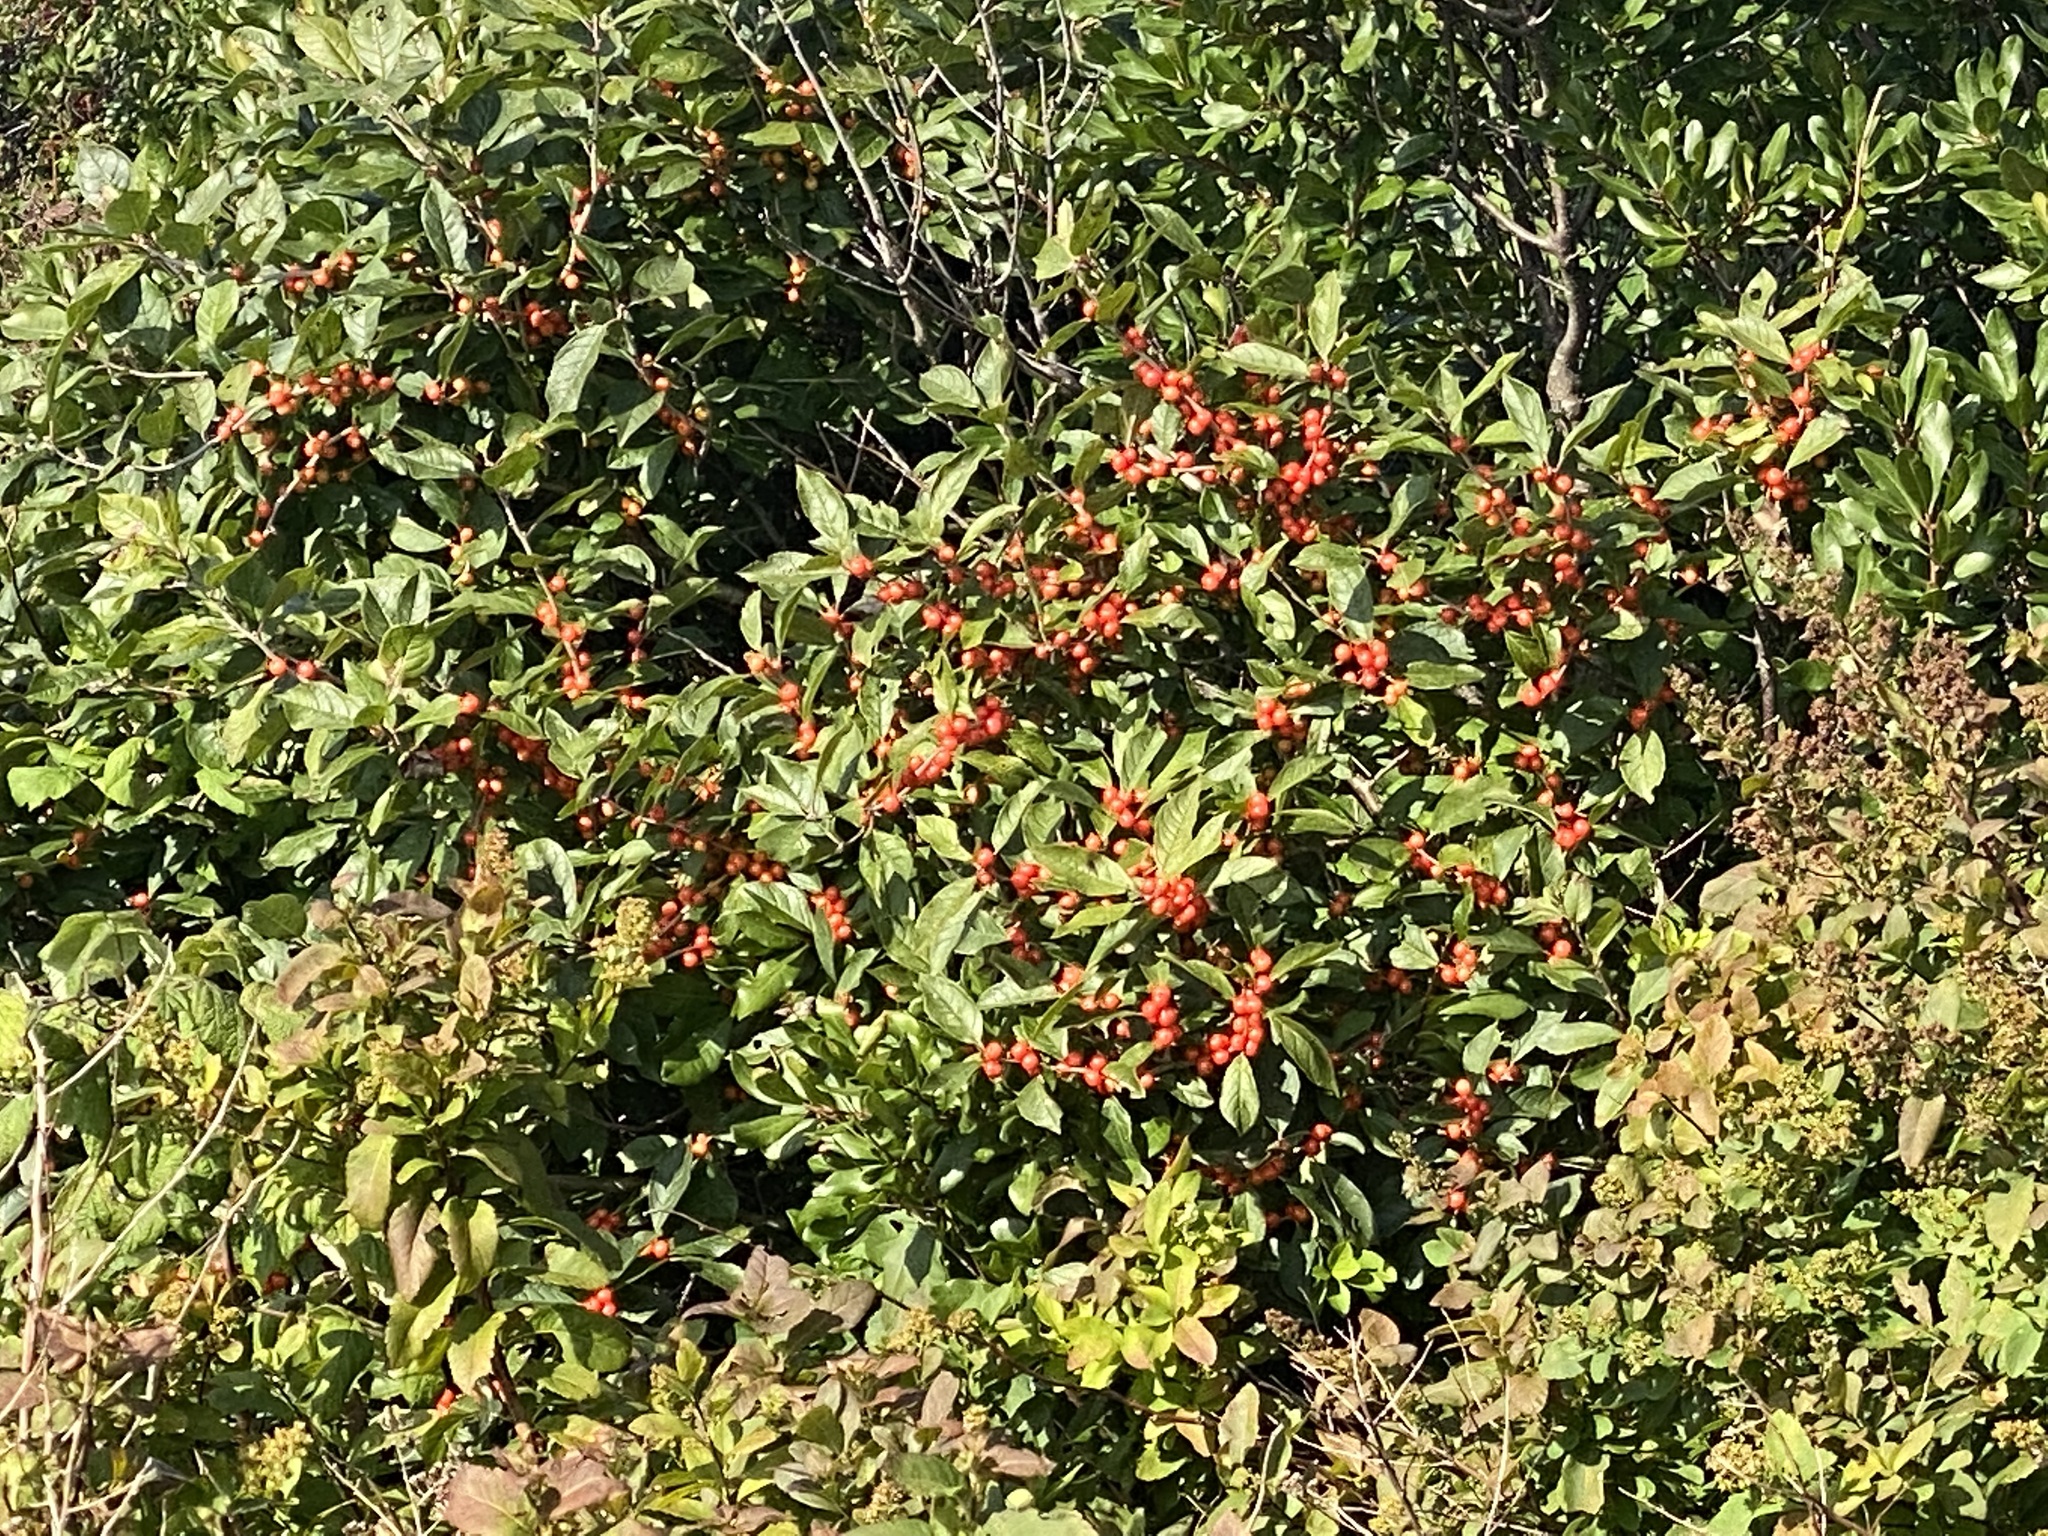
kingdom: Plantae
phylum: Tracheophyta
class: Magnoliopsida
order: Aquifoliales
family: Aquifoliaceae
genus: Ilex
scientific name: Ilex verticillata
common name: Virginia winterberry
